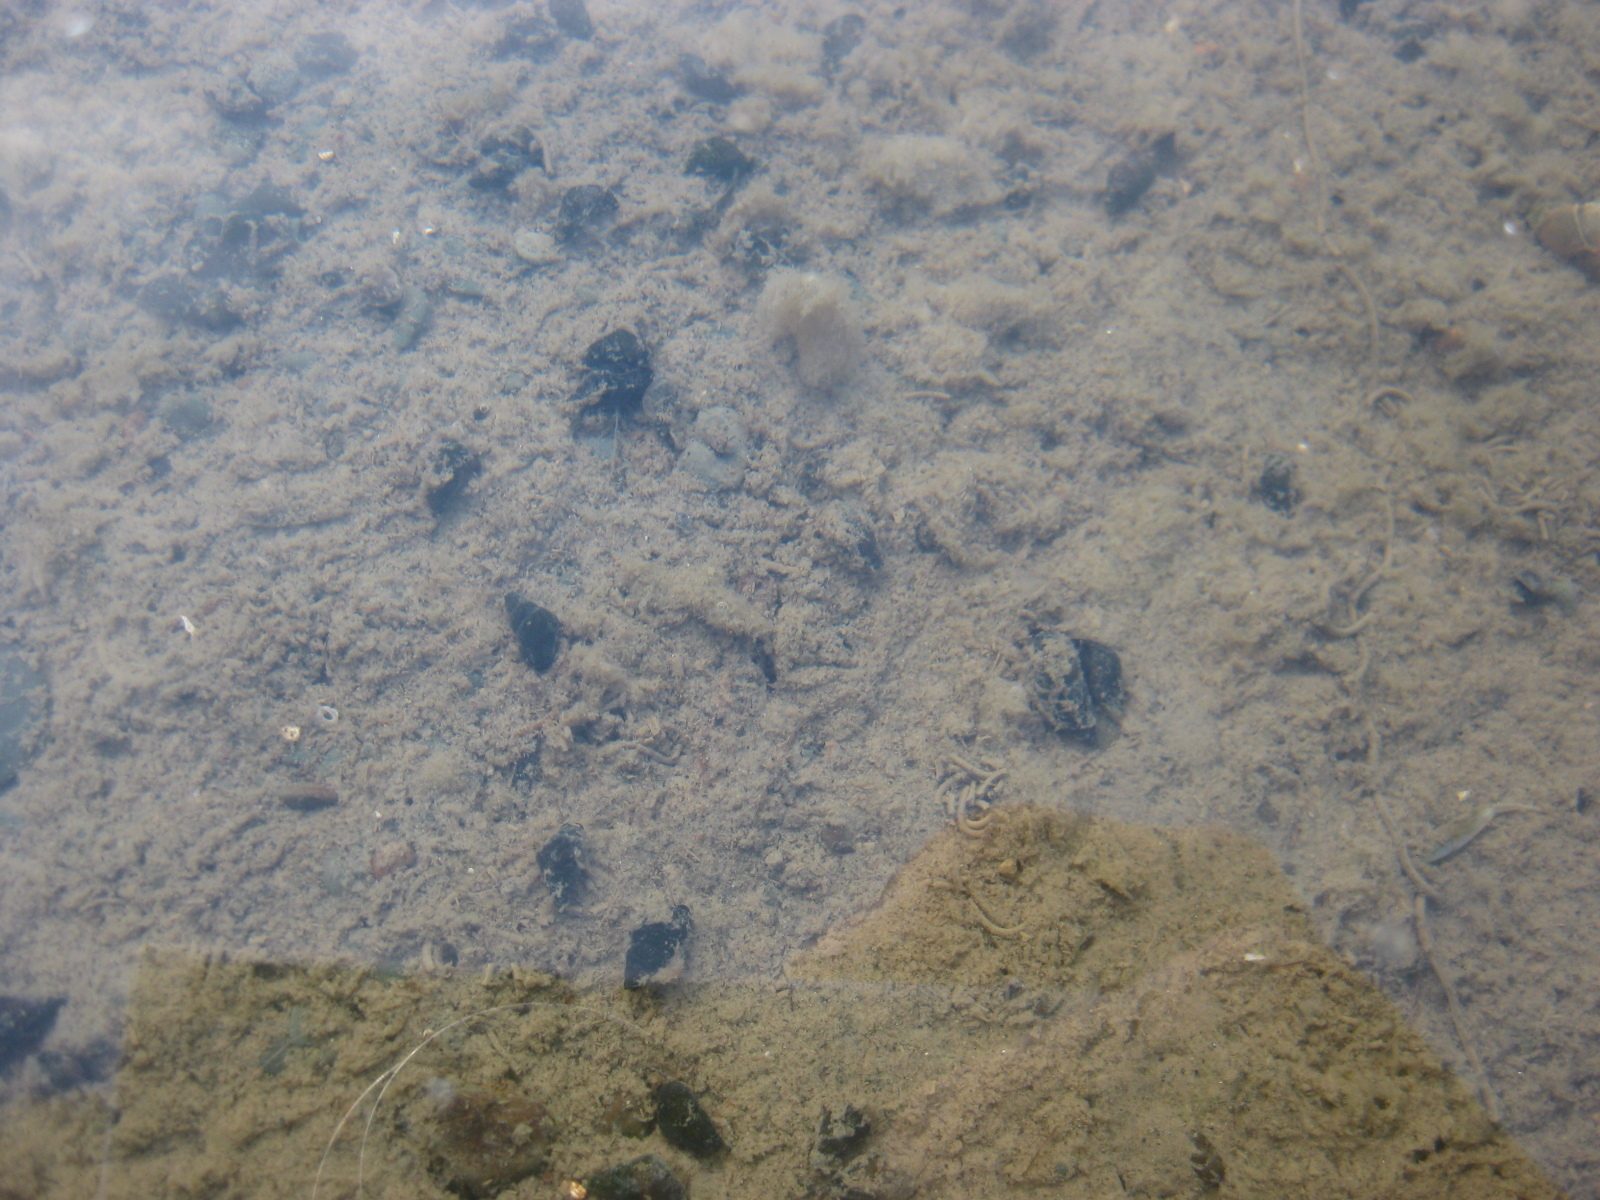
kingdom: Animalia
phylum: Mollusca
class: Gastropoda
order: Littorinimorpha
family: Tateidae
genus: Potamopyrgus
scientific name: Potamopyrgus estuarinus
